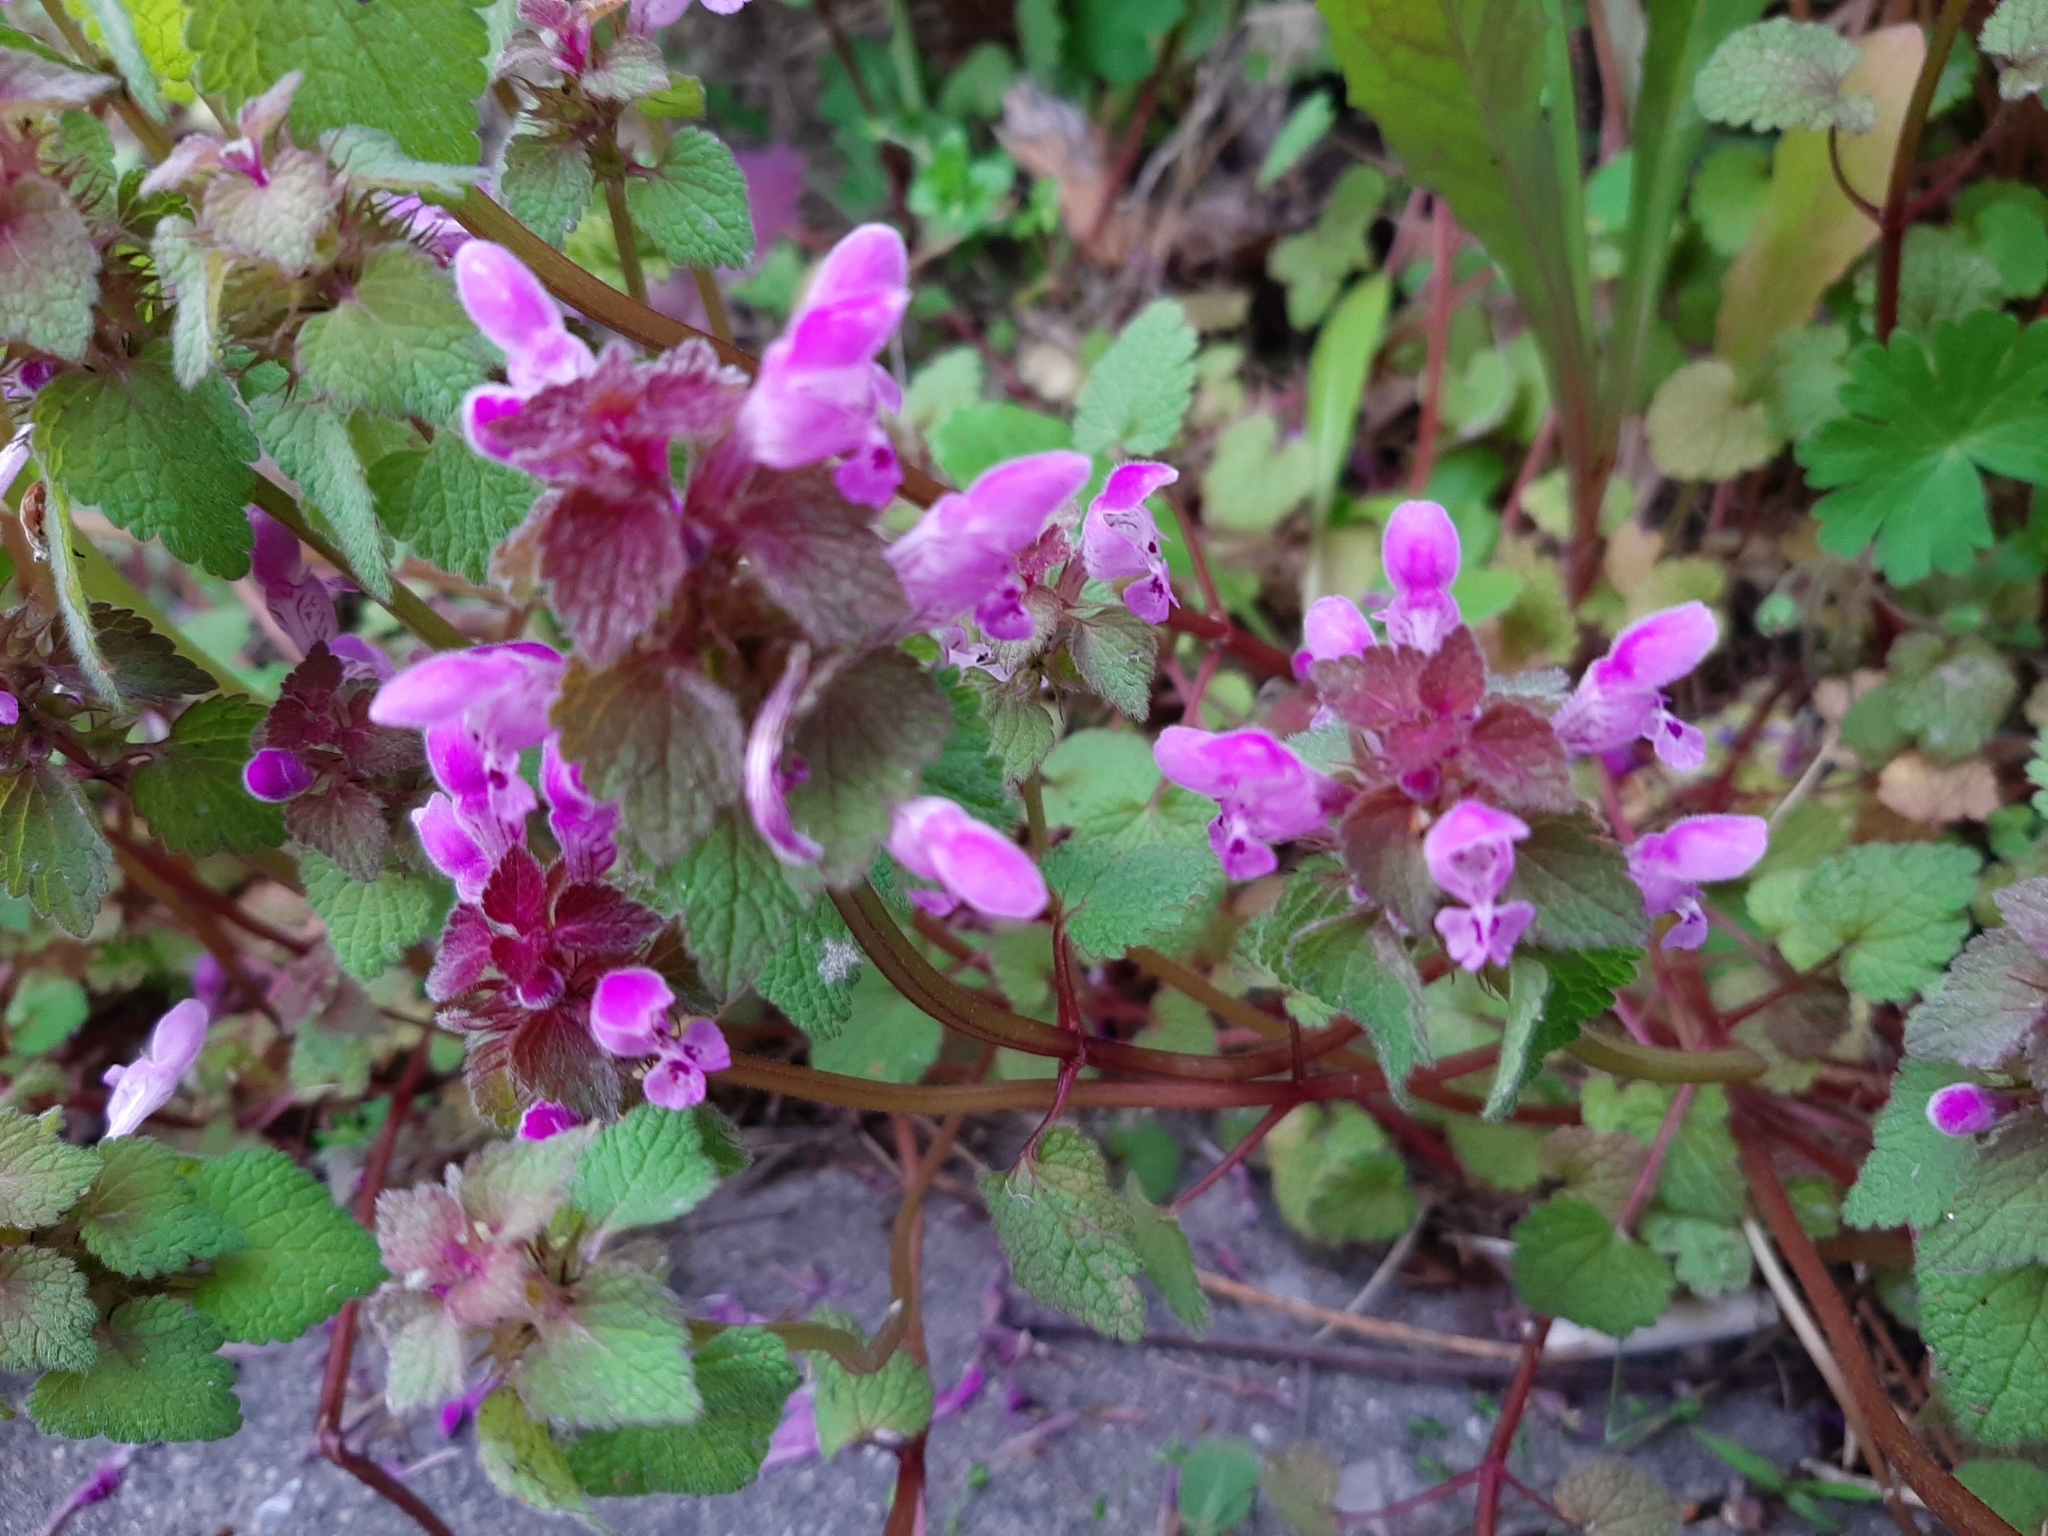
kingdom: Plantae
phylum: Tracheophyta
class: Magnoliopsida
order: Lamiales
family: Lamiaceae
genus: Lamium
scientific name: Lamium purpureum
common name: Red dead-nettle
